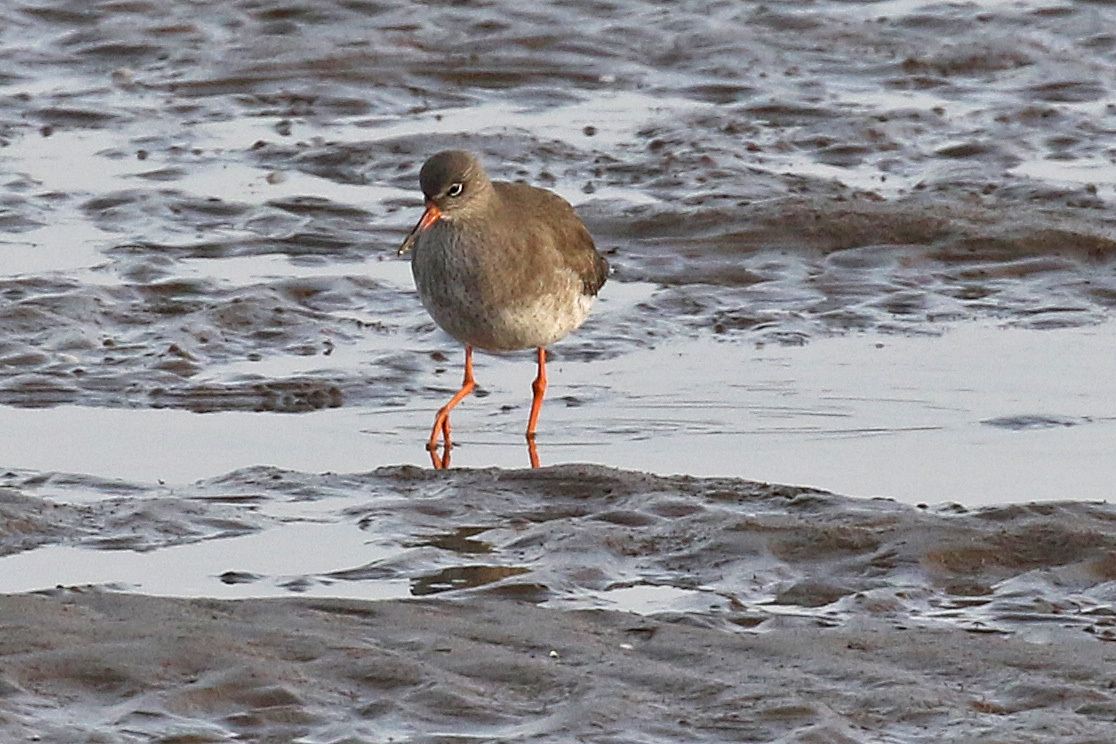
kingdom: Animalia
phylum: Chordata
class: Aves
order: Charadriiformes
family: Scolopacidae
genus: Tringa
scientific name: Tringa totanus
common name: Common redshank
